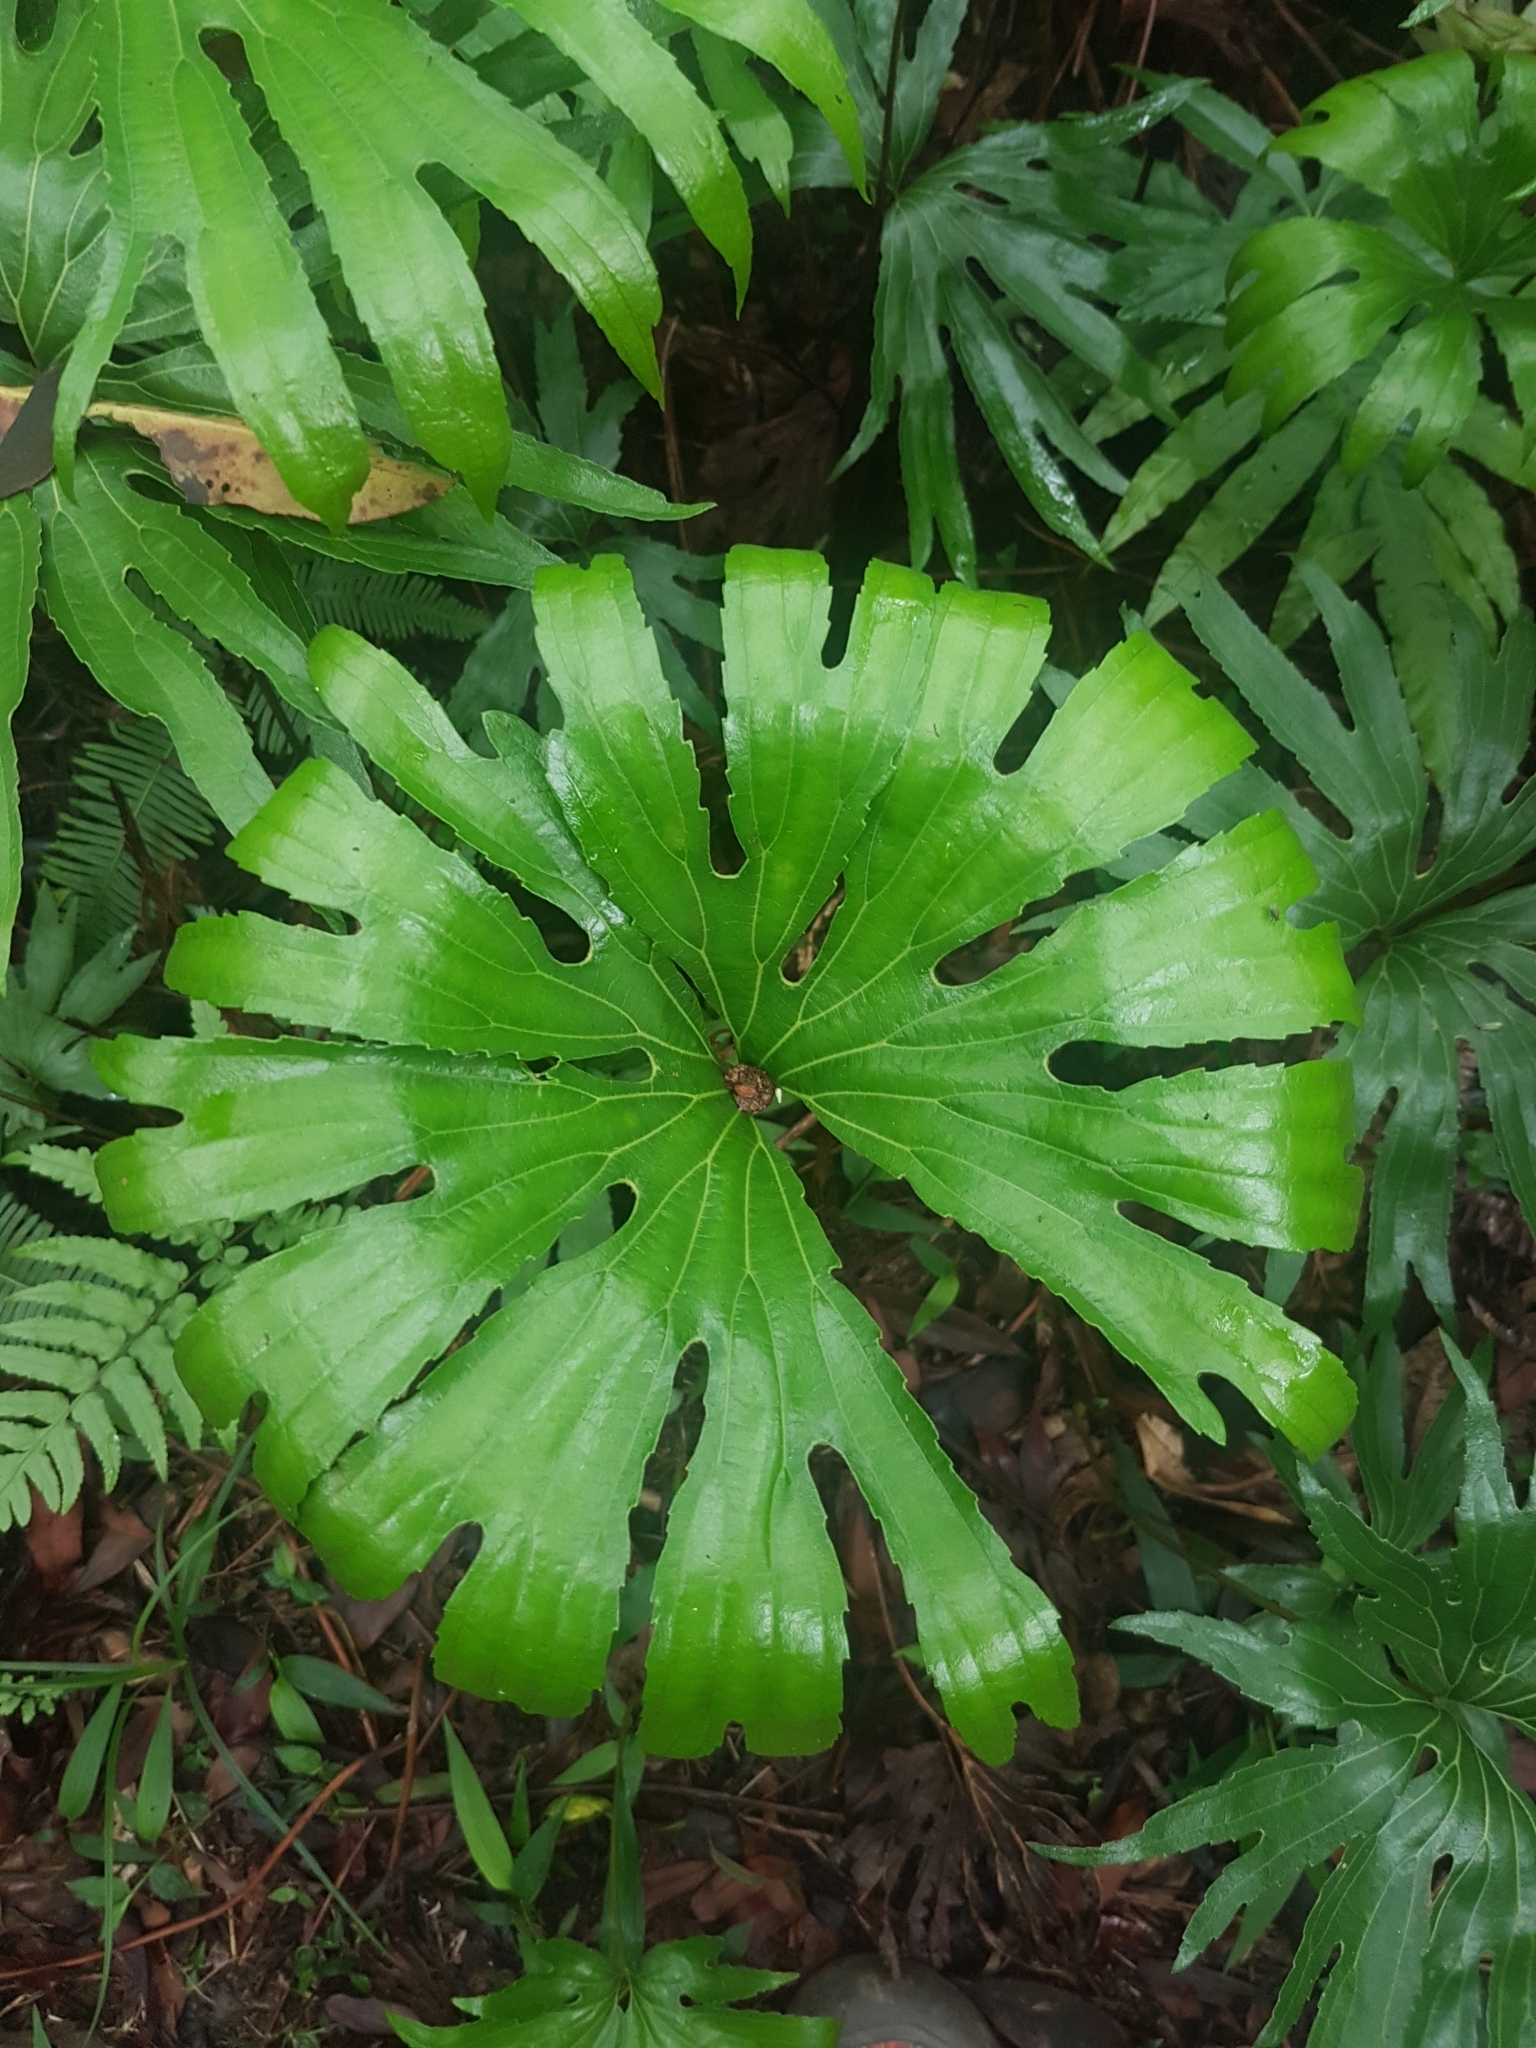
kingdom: Plantae
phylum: Tracheophyta
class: Polypodiopsida
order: Gleicheniales
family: Dipteridaceae
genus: Dipteris
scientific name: Dipteris conjugata
